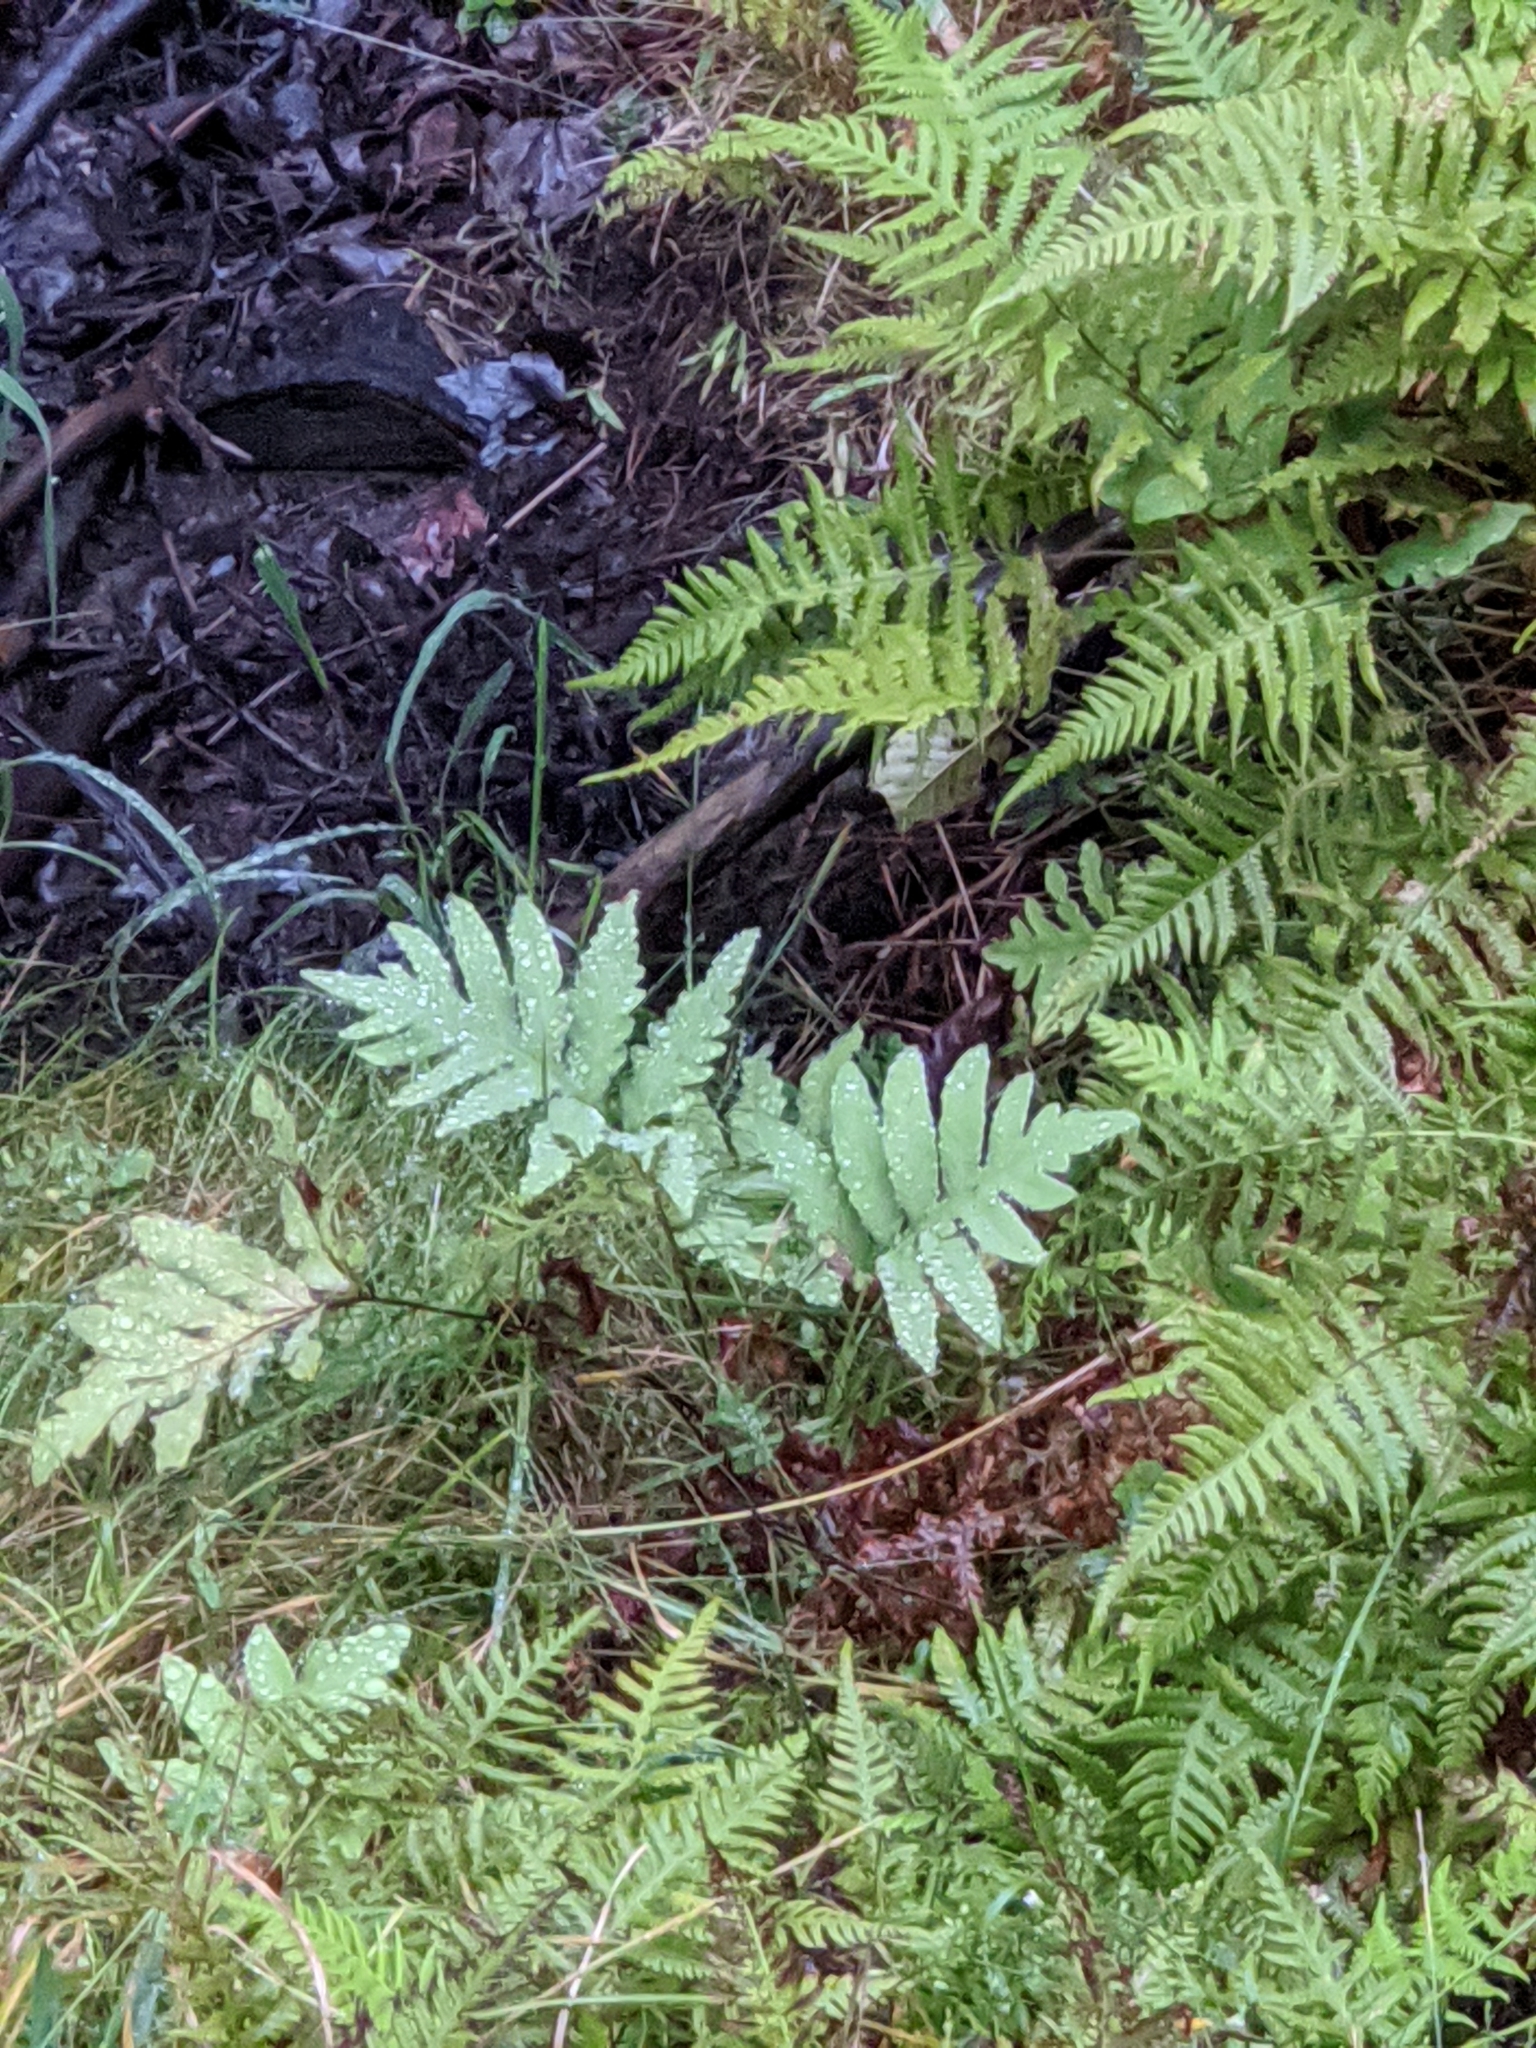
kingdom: Plantae
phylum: Tracheophyta
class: Polypodiopsida
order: Polypodiales
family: Onocleaceae
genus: Onoclea
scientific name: Onoclea sensibilis
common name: Sensitive fern
